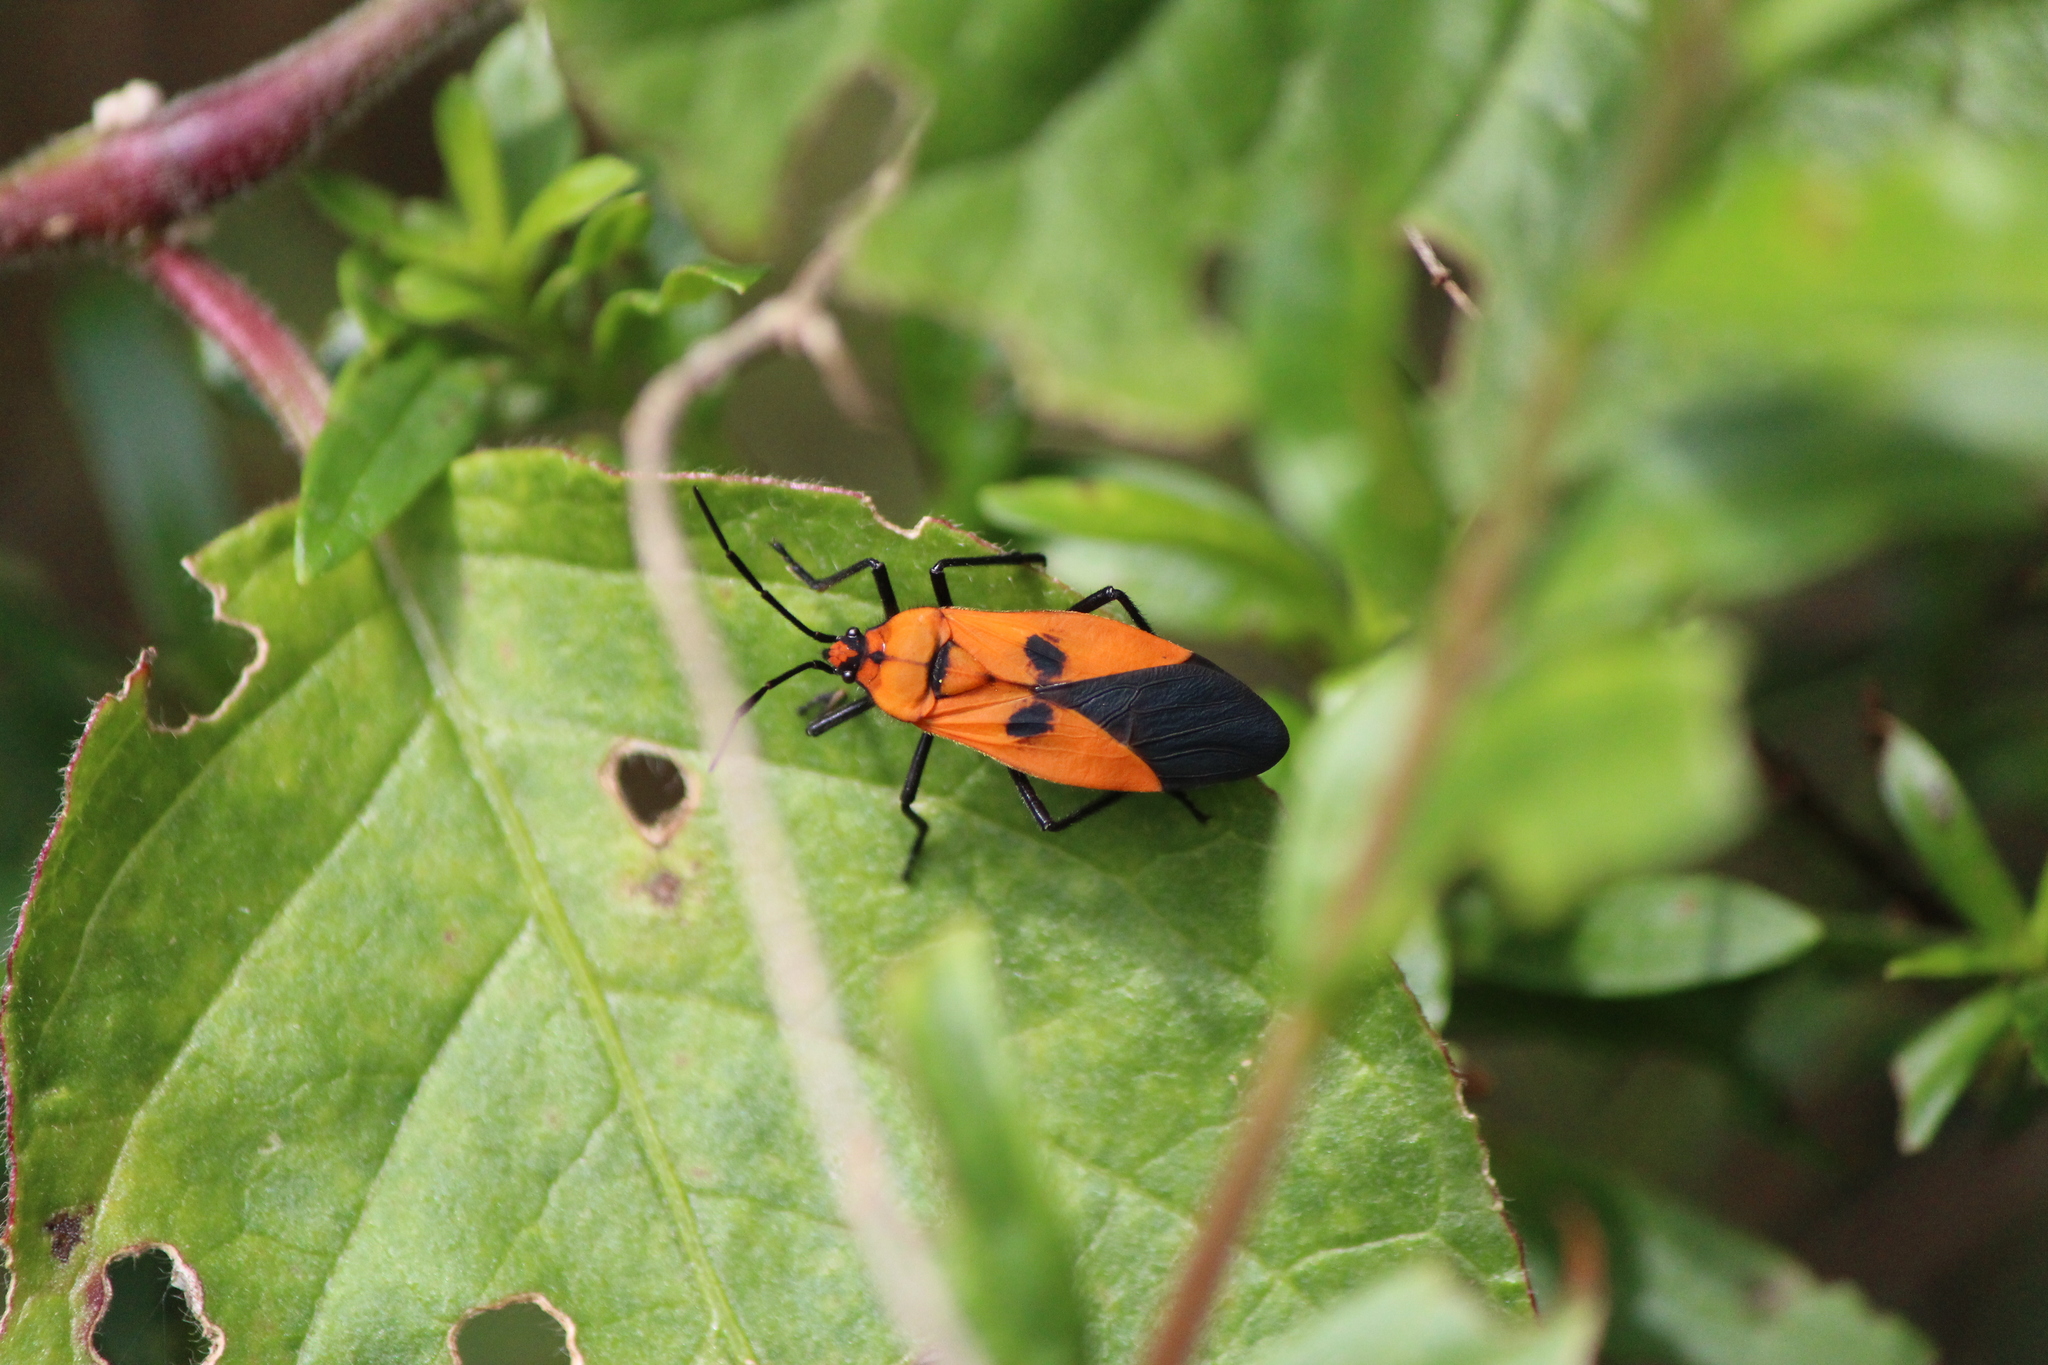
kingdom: Animalia
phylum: Arthropoda
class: Insecta
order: Hemiptera
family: Lygaeidae
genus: Oncopeltus
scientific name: Oncopeltus varicolor
